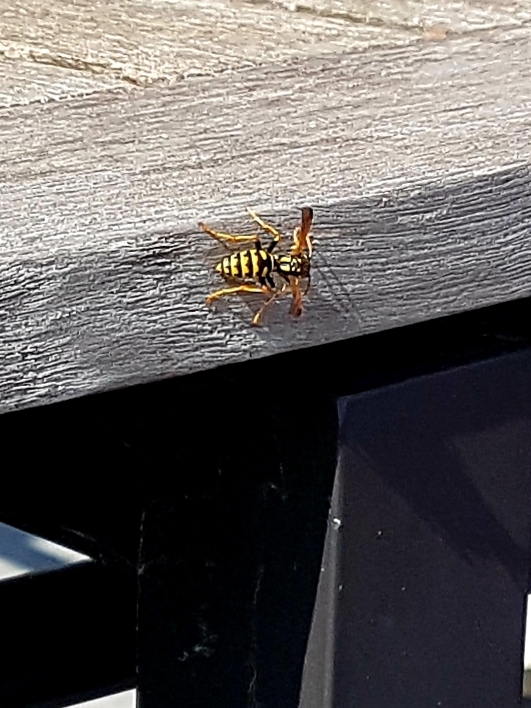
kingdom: Animalia
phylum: Arthropoda
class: Insecta
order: Hymenoptera
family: Eumenidae
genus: Polistes
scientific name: Polistes dominula
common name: Paper wasp
